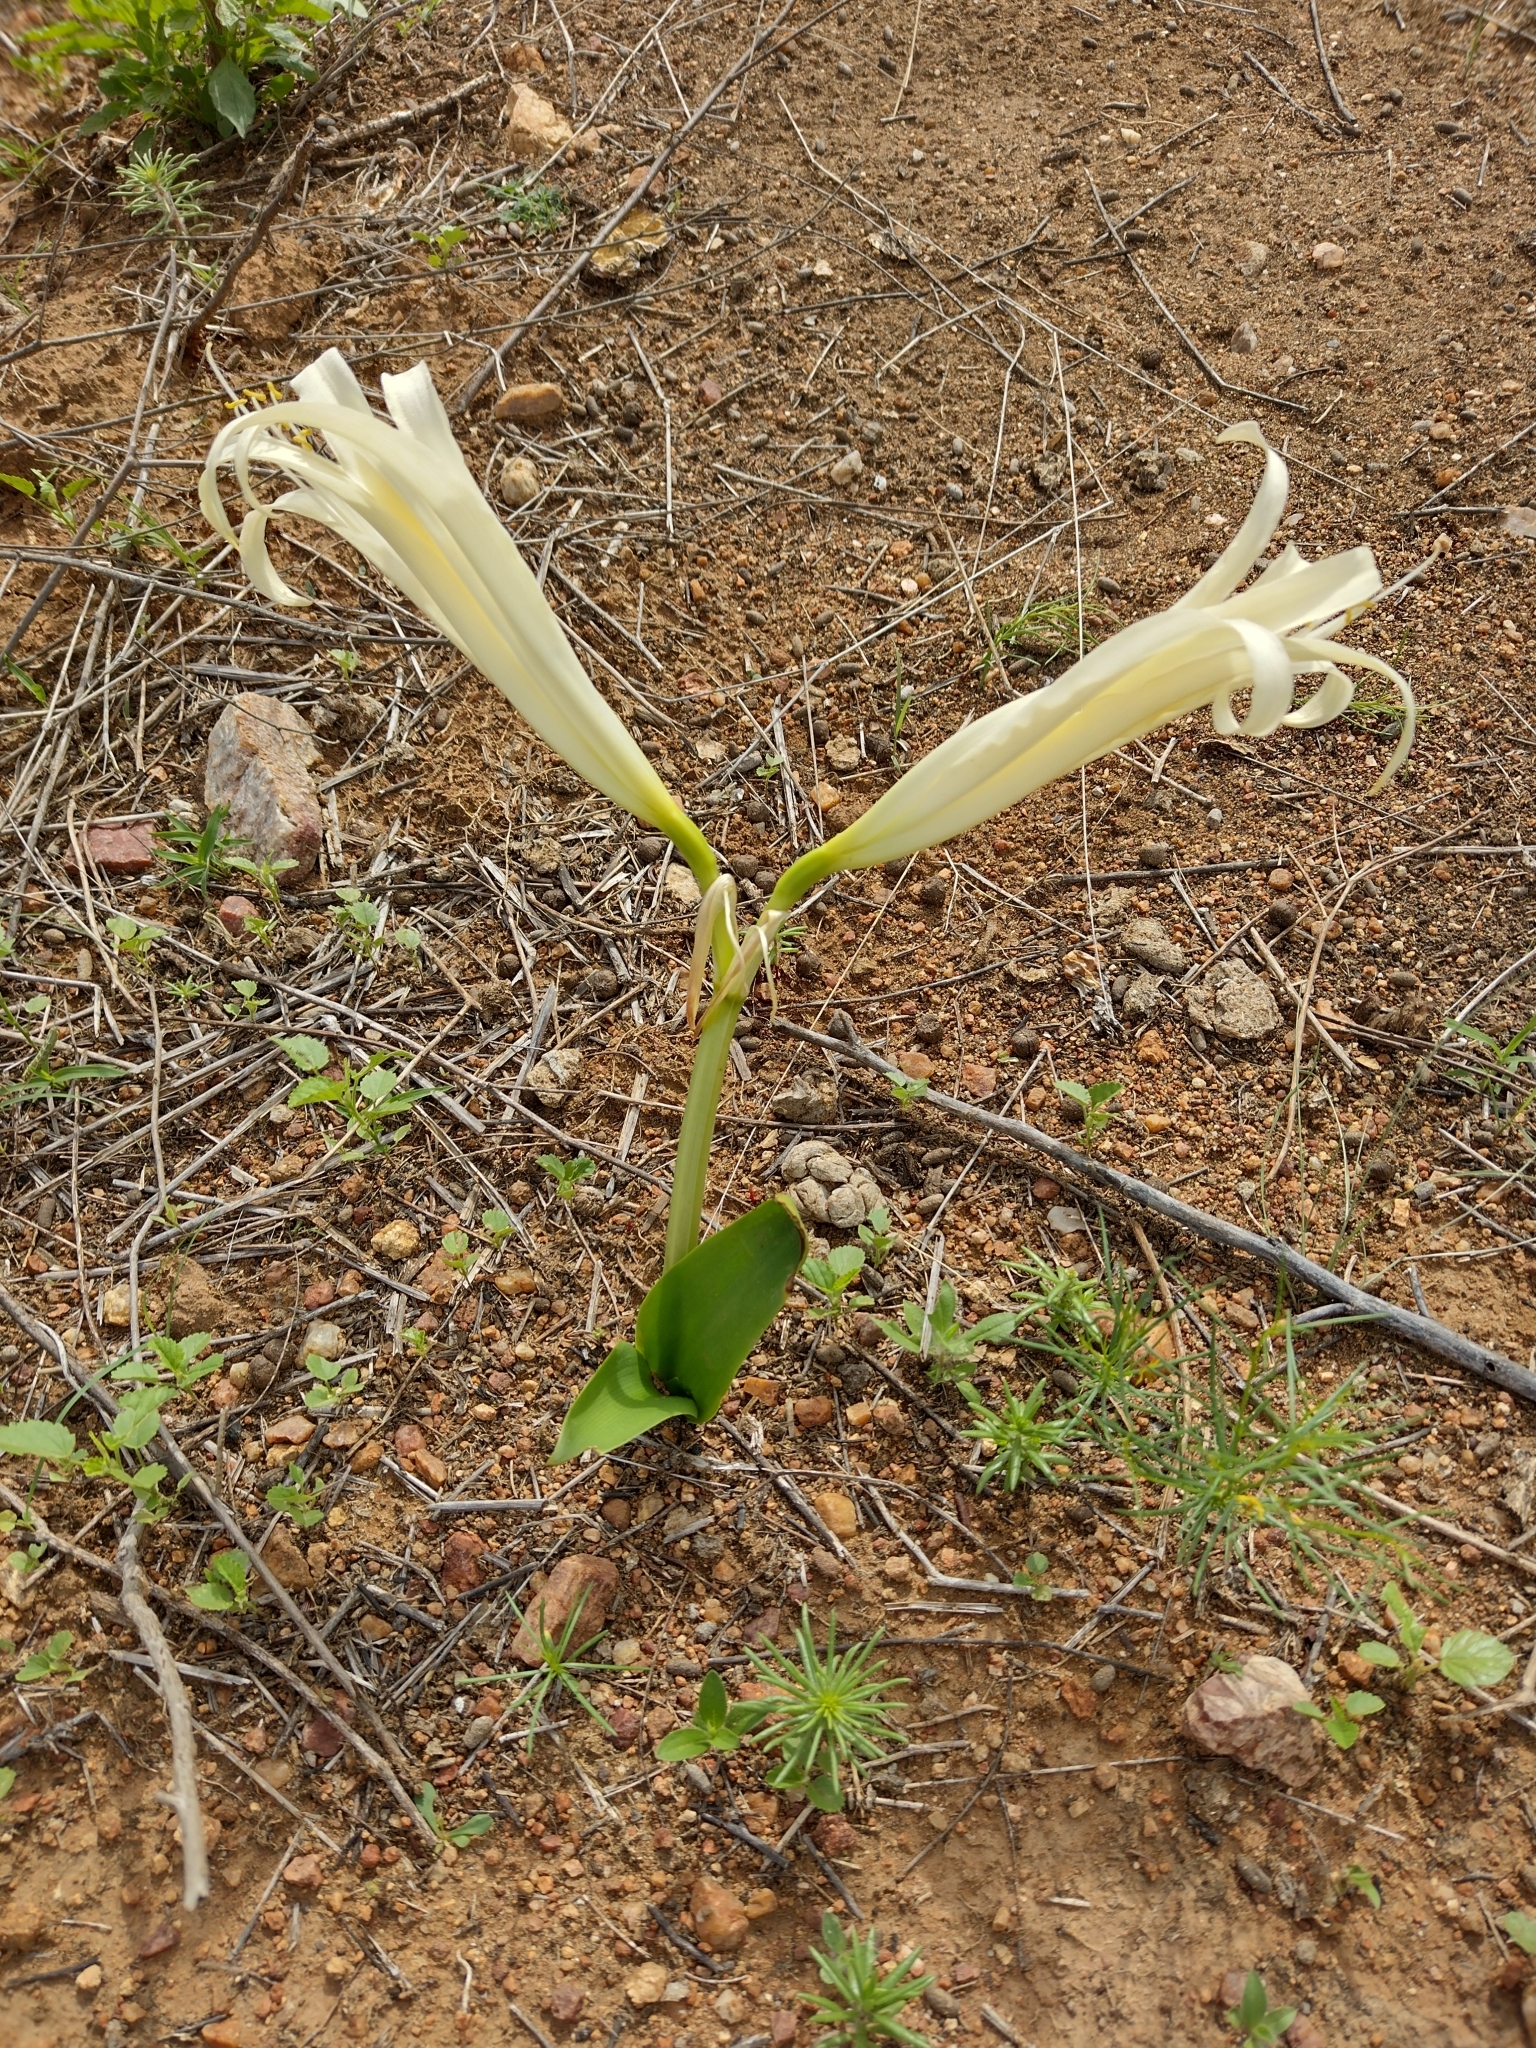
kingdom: Plantae
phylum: Tracheophyta
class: Liliopsida
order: Asparagales
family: Amaryllidaceae
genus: Griffinia
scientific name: Griffinia gardneriana
